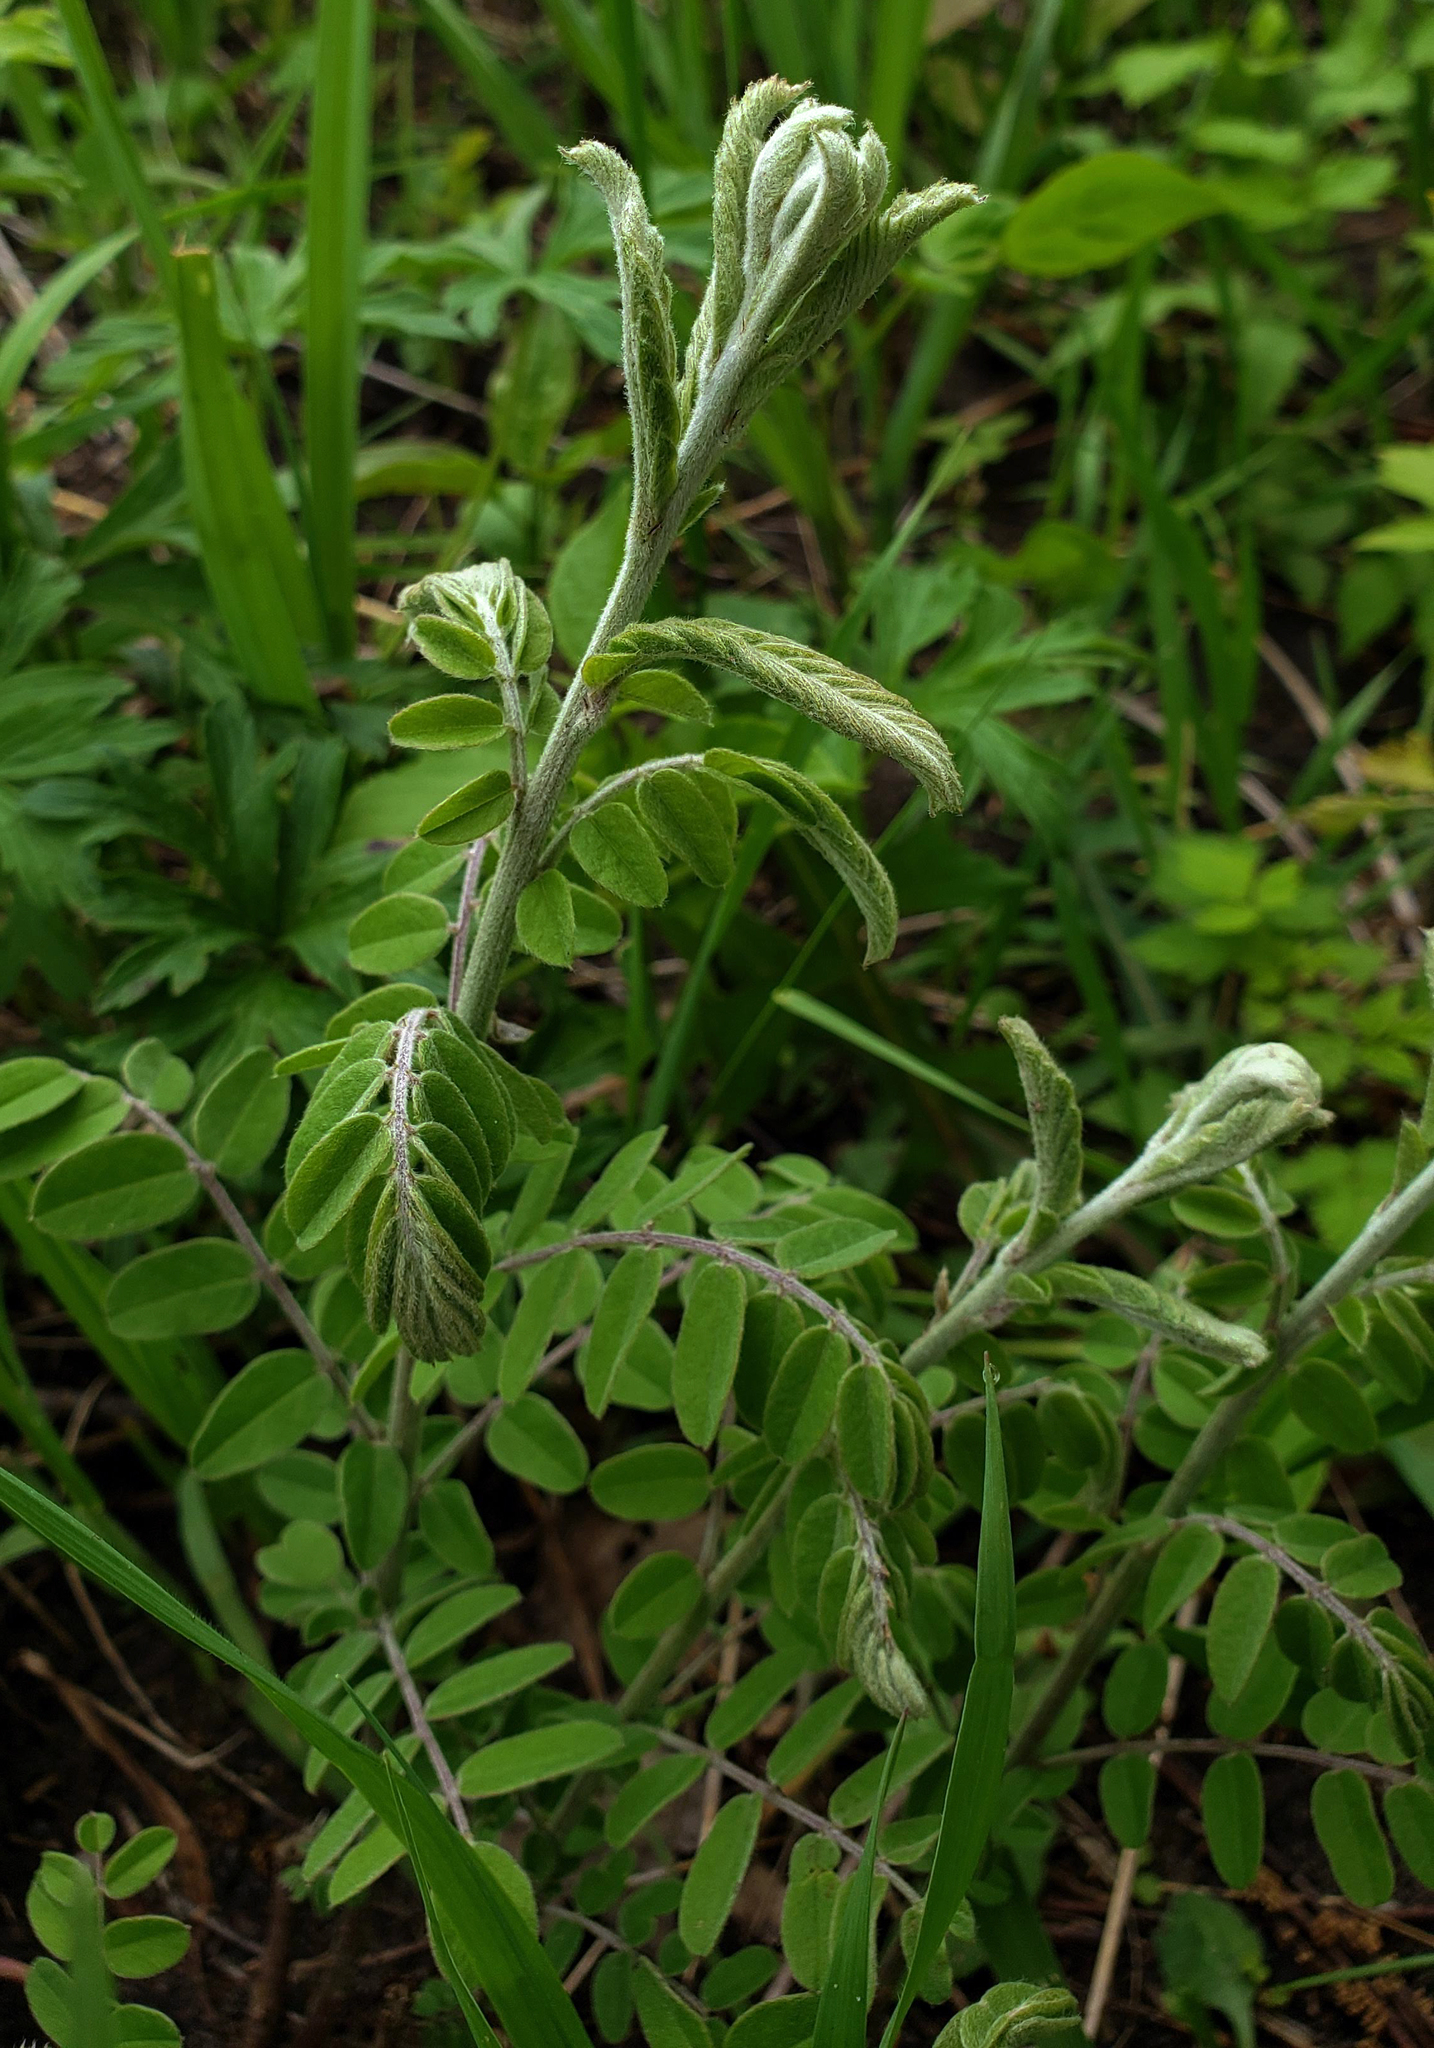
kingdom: Plantae
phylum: Tracheophyta
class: Magnoliopsida
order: Fabales
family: Fabaceae
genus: Amorpha
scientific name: Amorpha canescens
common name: Leadplant
